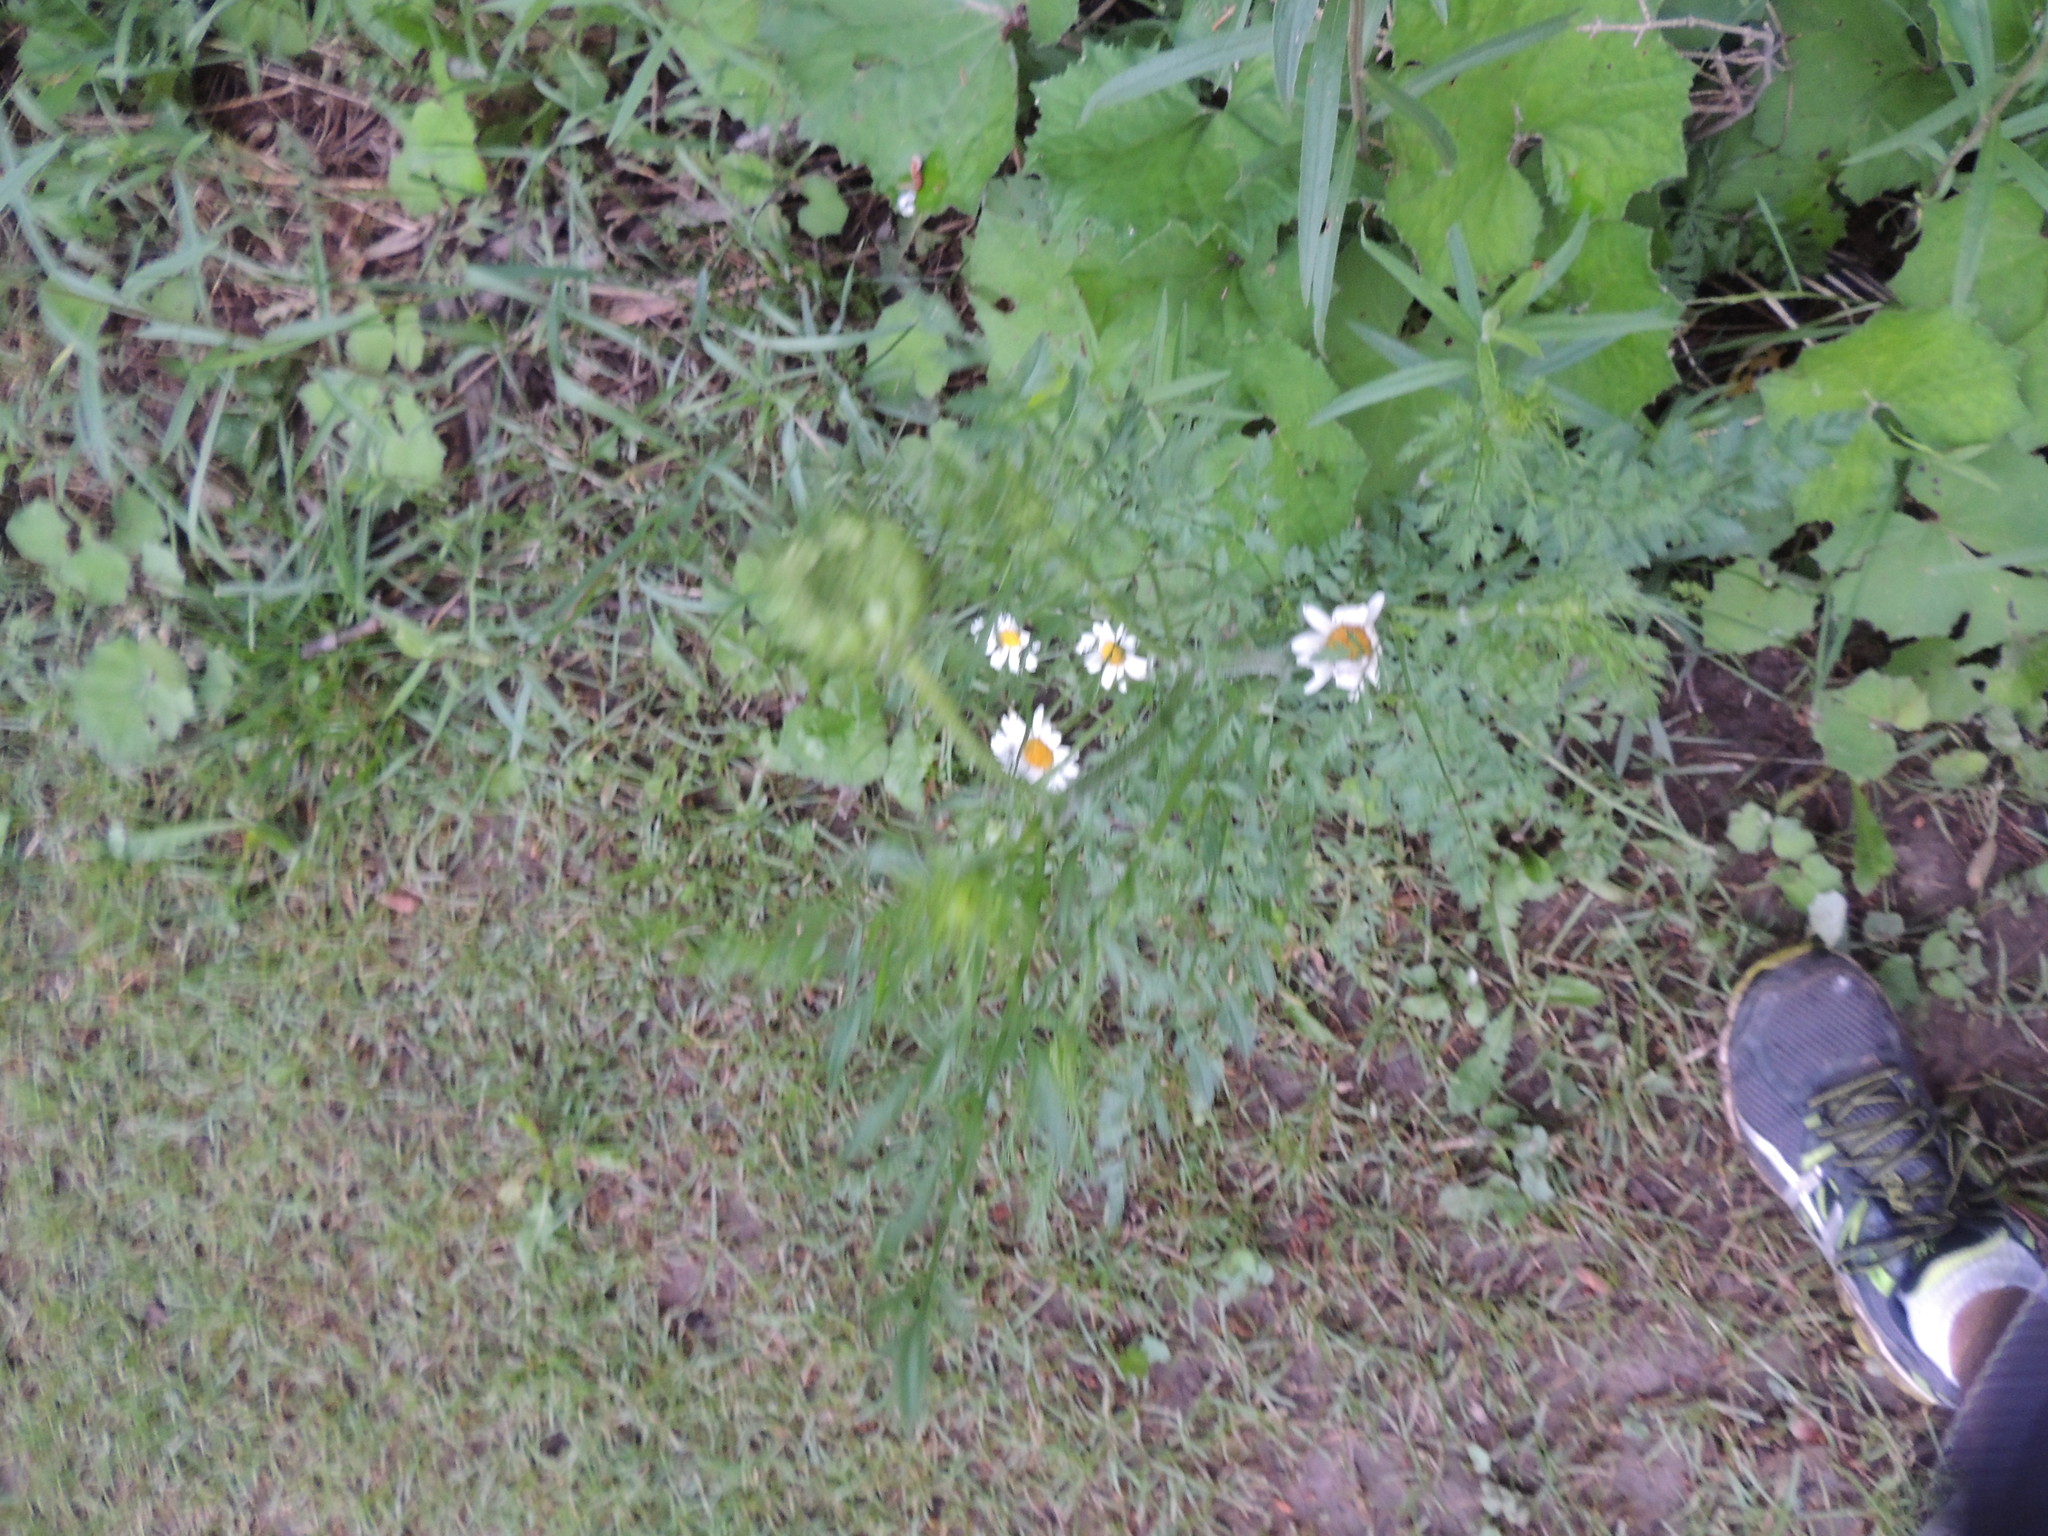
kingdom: Plantae
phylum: Tracheophyta
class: Magnoliopsida
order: Asterales
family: Asteraceae
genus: Leucanthemum
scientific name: Leucanthemum vulgare
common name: Oxeye daisy
